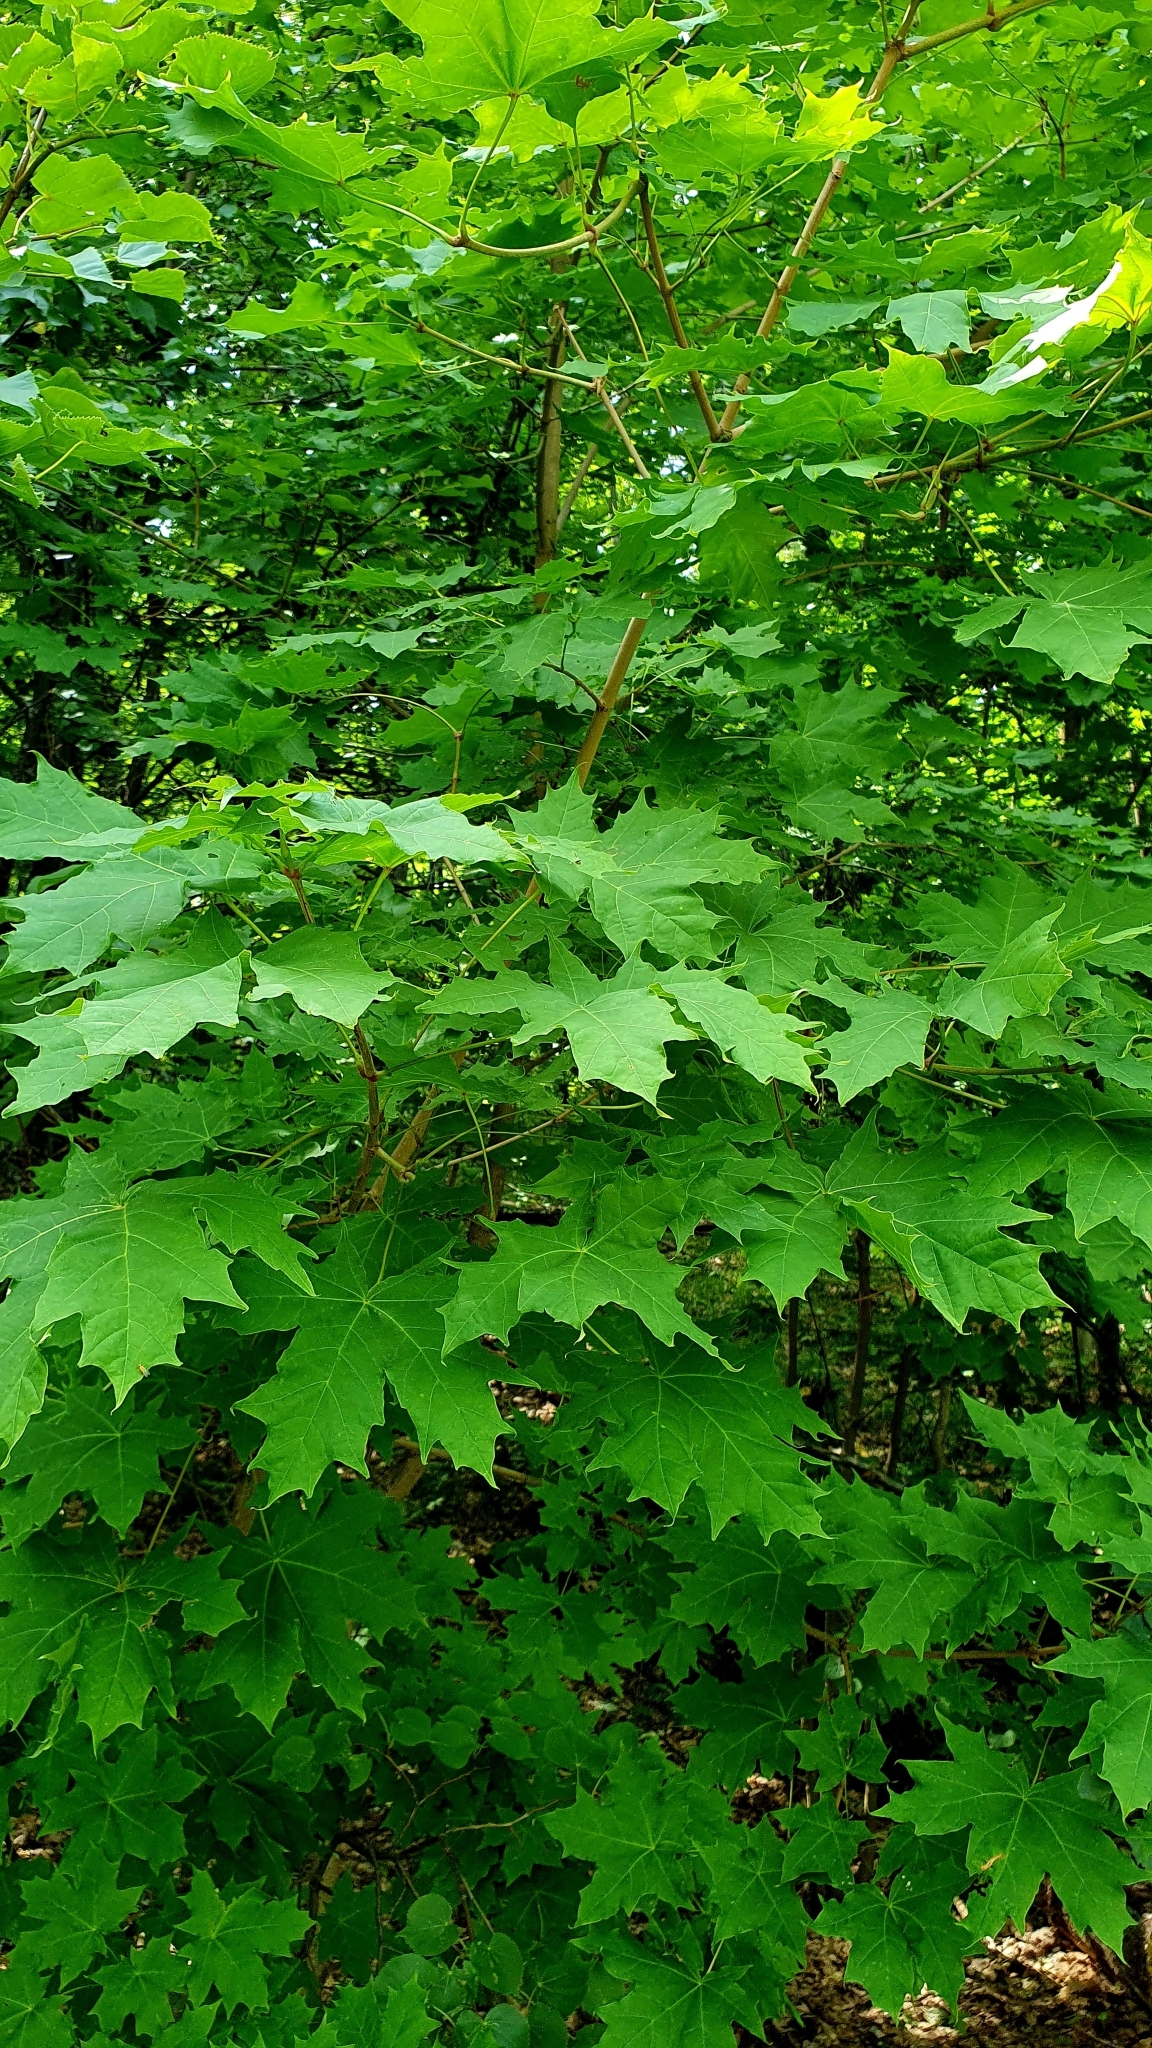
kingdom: Plantae
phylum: Tracheophyta
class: Magnoliopsida
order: Sapindales
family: Sapindaceae
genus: Acer
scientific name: Acer platanoides
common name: Norway maple
